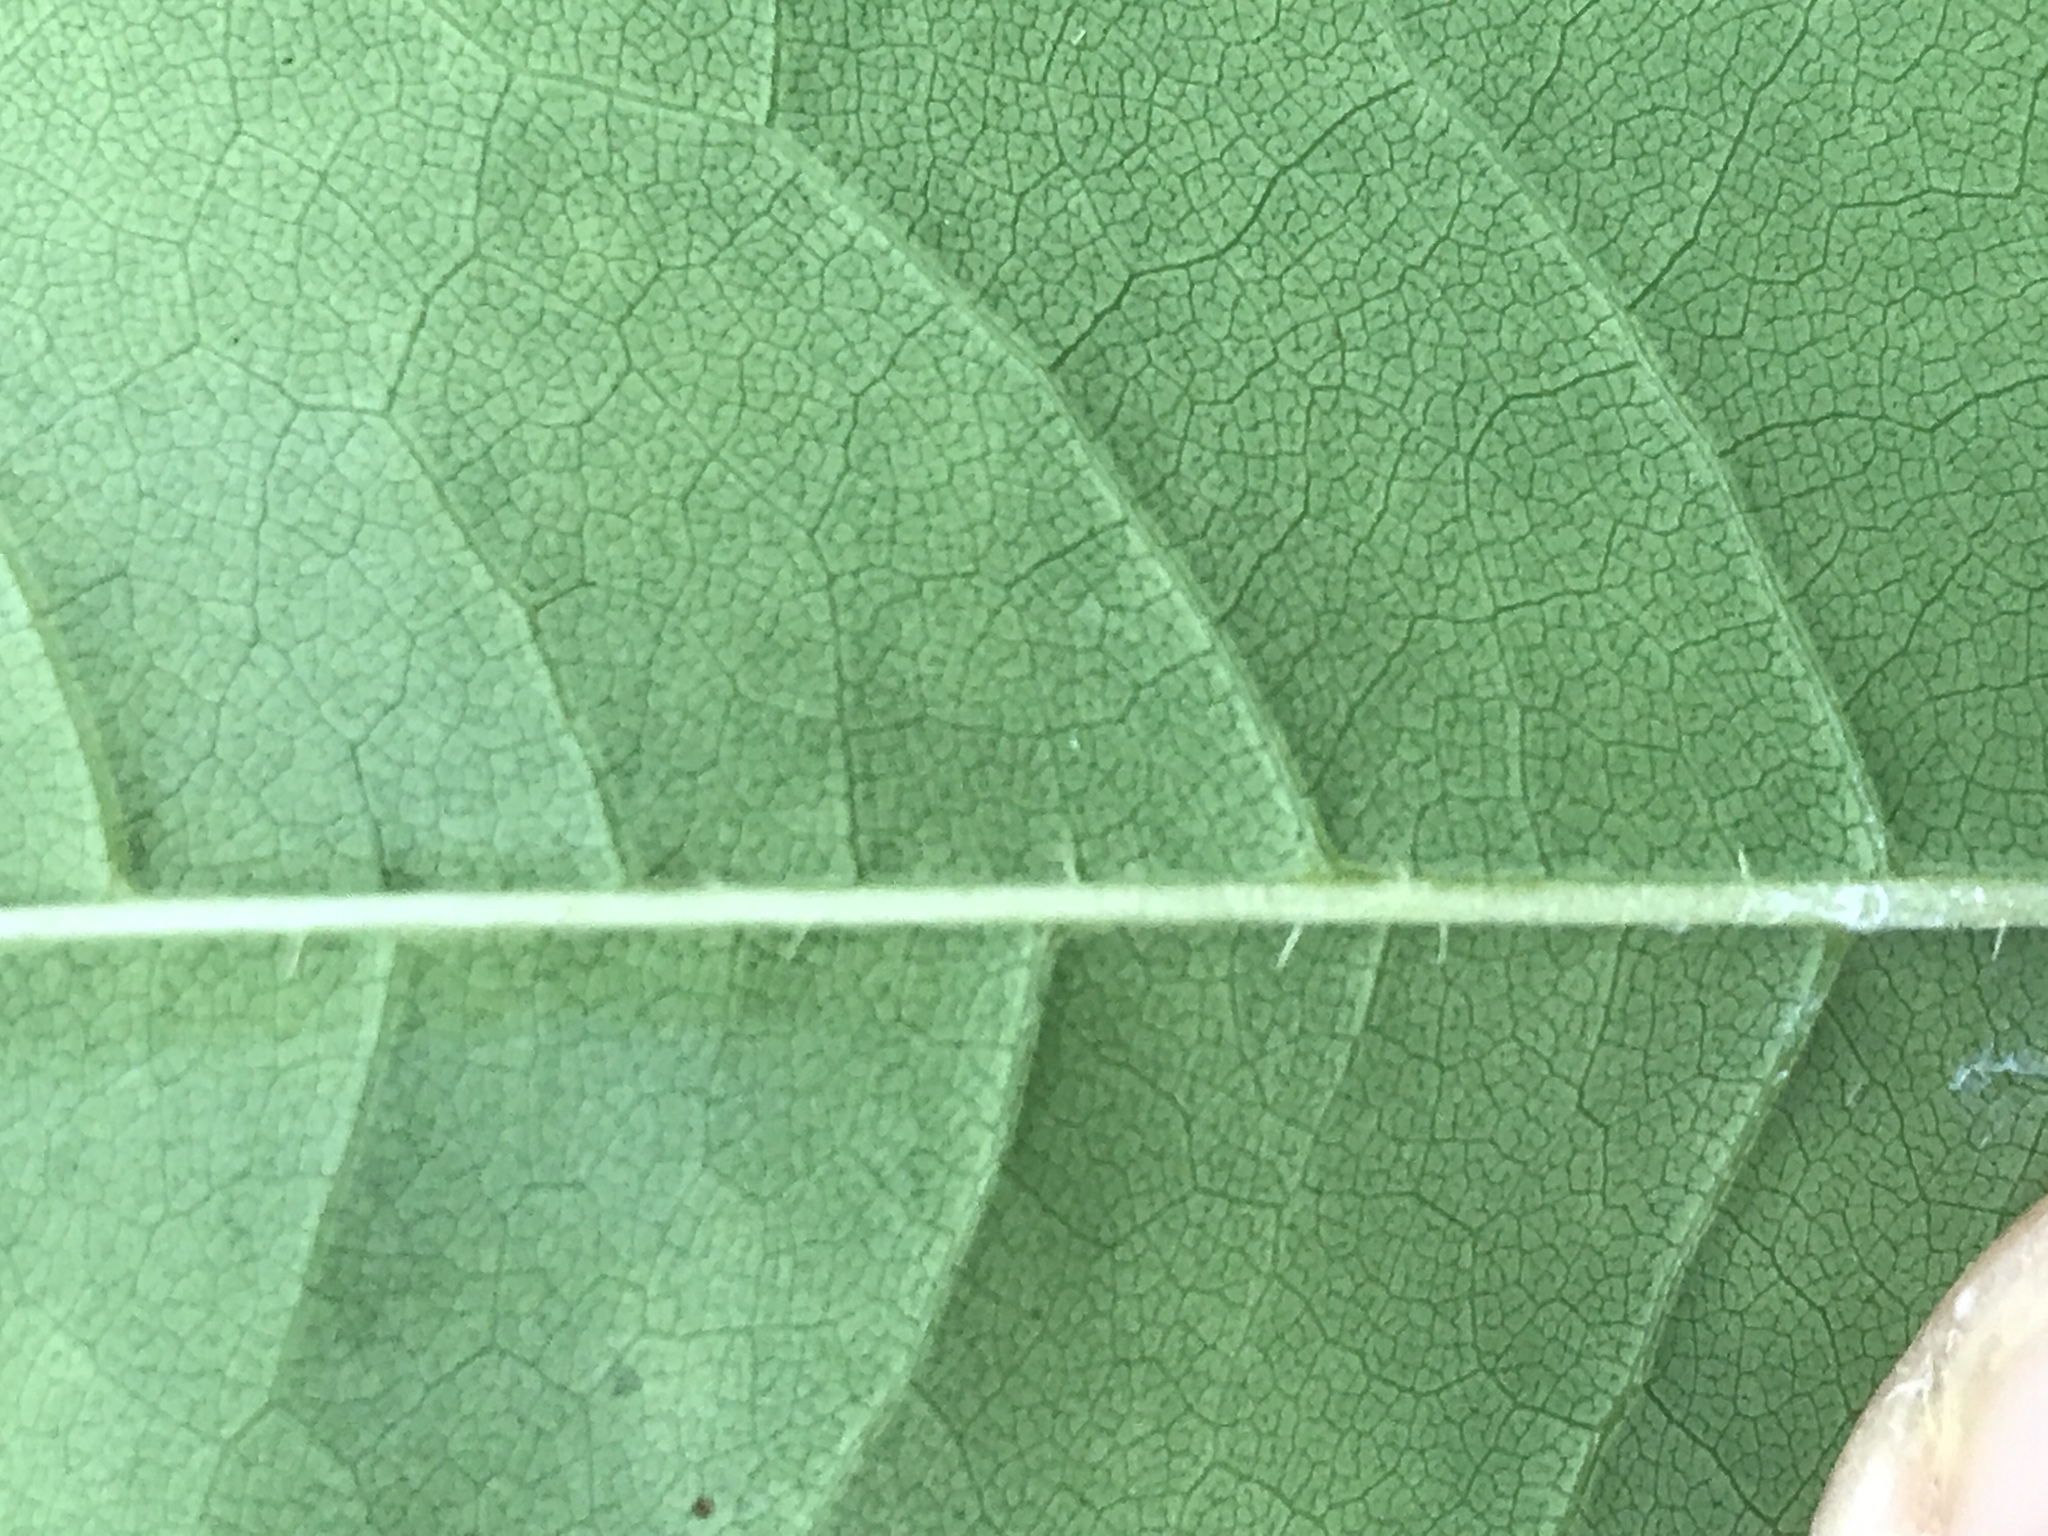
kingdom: Plantae
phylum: Tracheophyta
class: Magnoliopsida
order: Ericales
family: Ericaceae
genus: Oxydendrum
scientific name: Oxydendrum arboreum
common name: Sourwood
